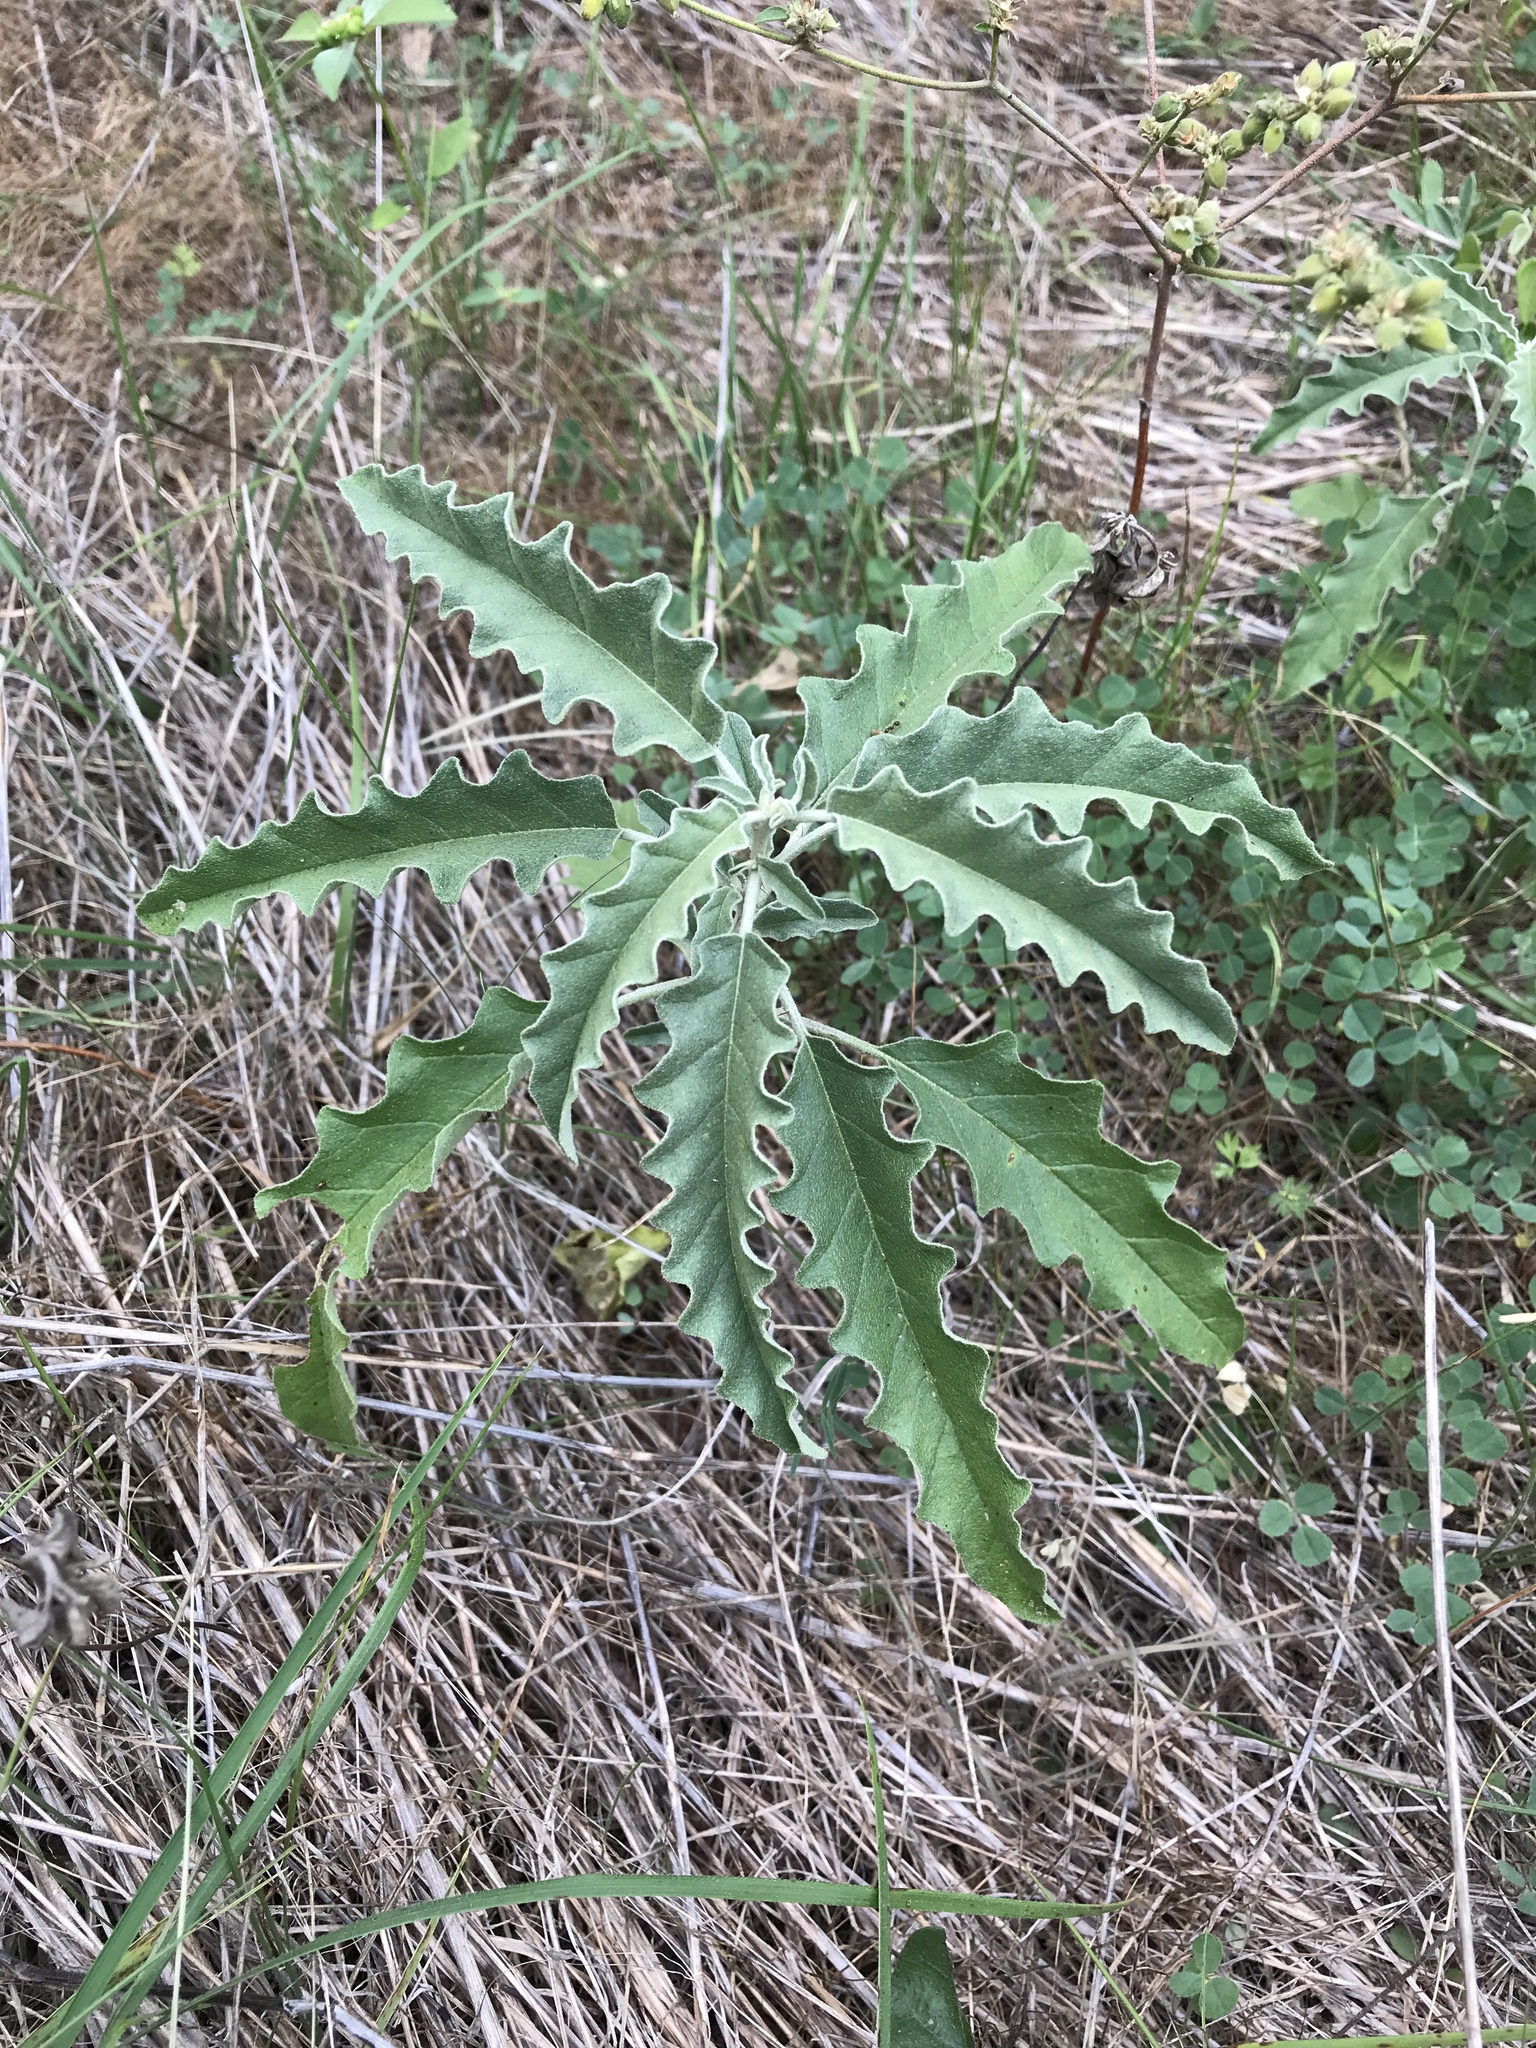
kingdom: Plantae
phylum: Tracheophyta
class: Magnoliopsida
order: Solanales
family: Solanaceae
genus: Solanum
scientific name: Solanum elaeagnifolium
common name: Silverleaf nightshade
